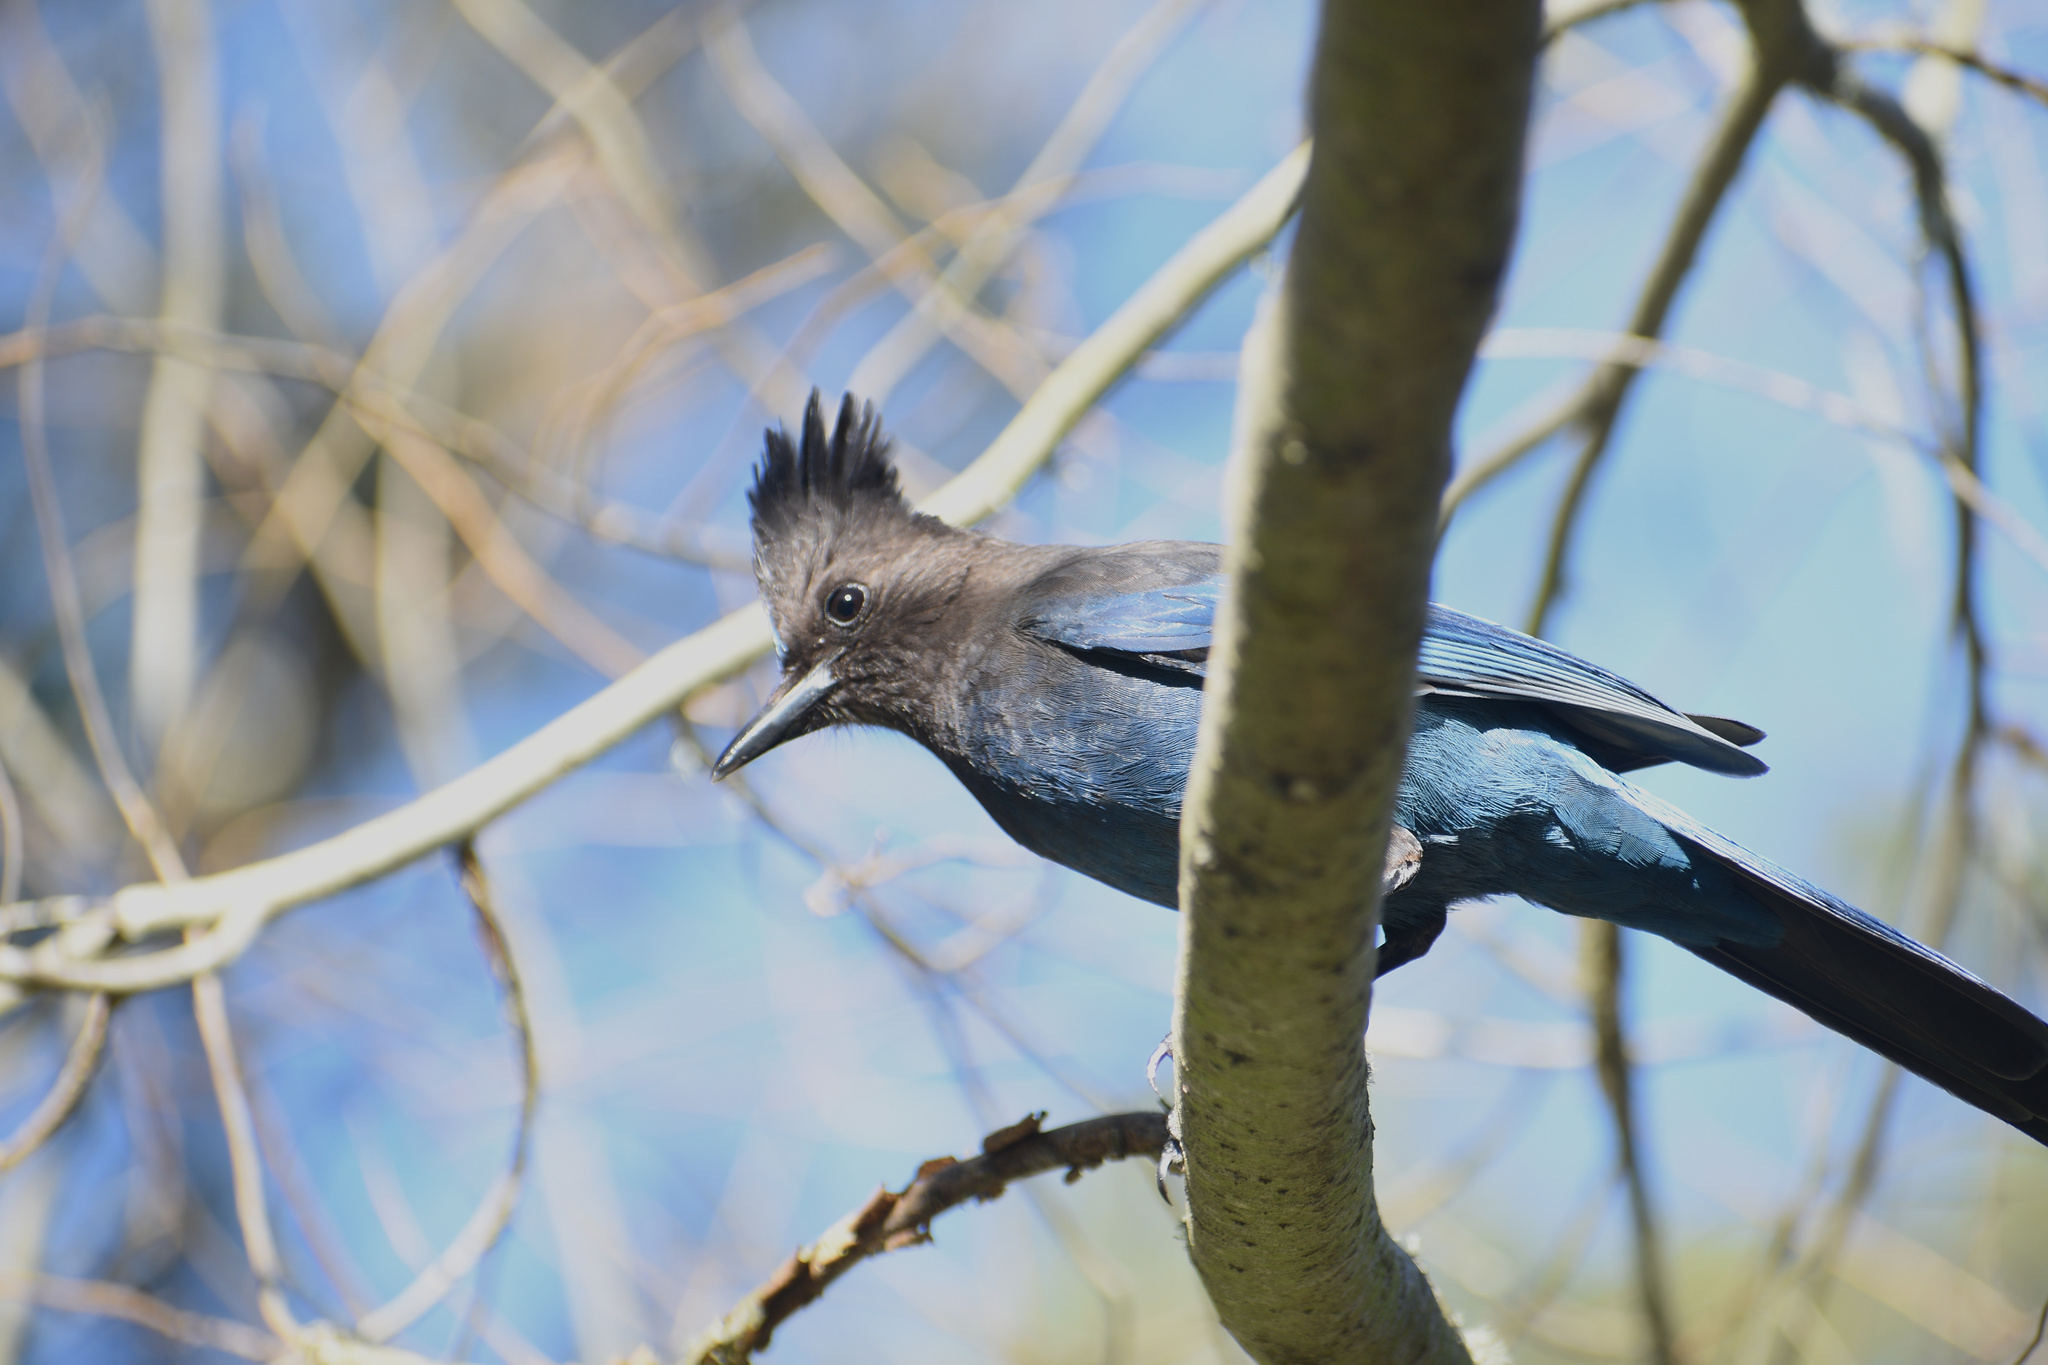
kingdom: Animalia
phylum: Chordata
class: Aves
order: Passeriformes
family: Corvidae
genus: Cyanocitta
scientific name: Cyanocitta stelleri
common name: Steller's jay
